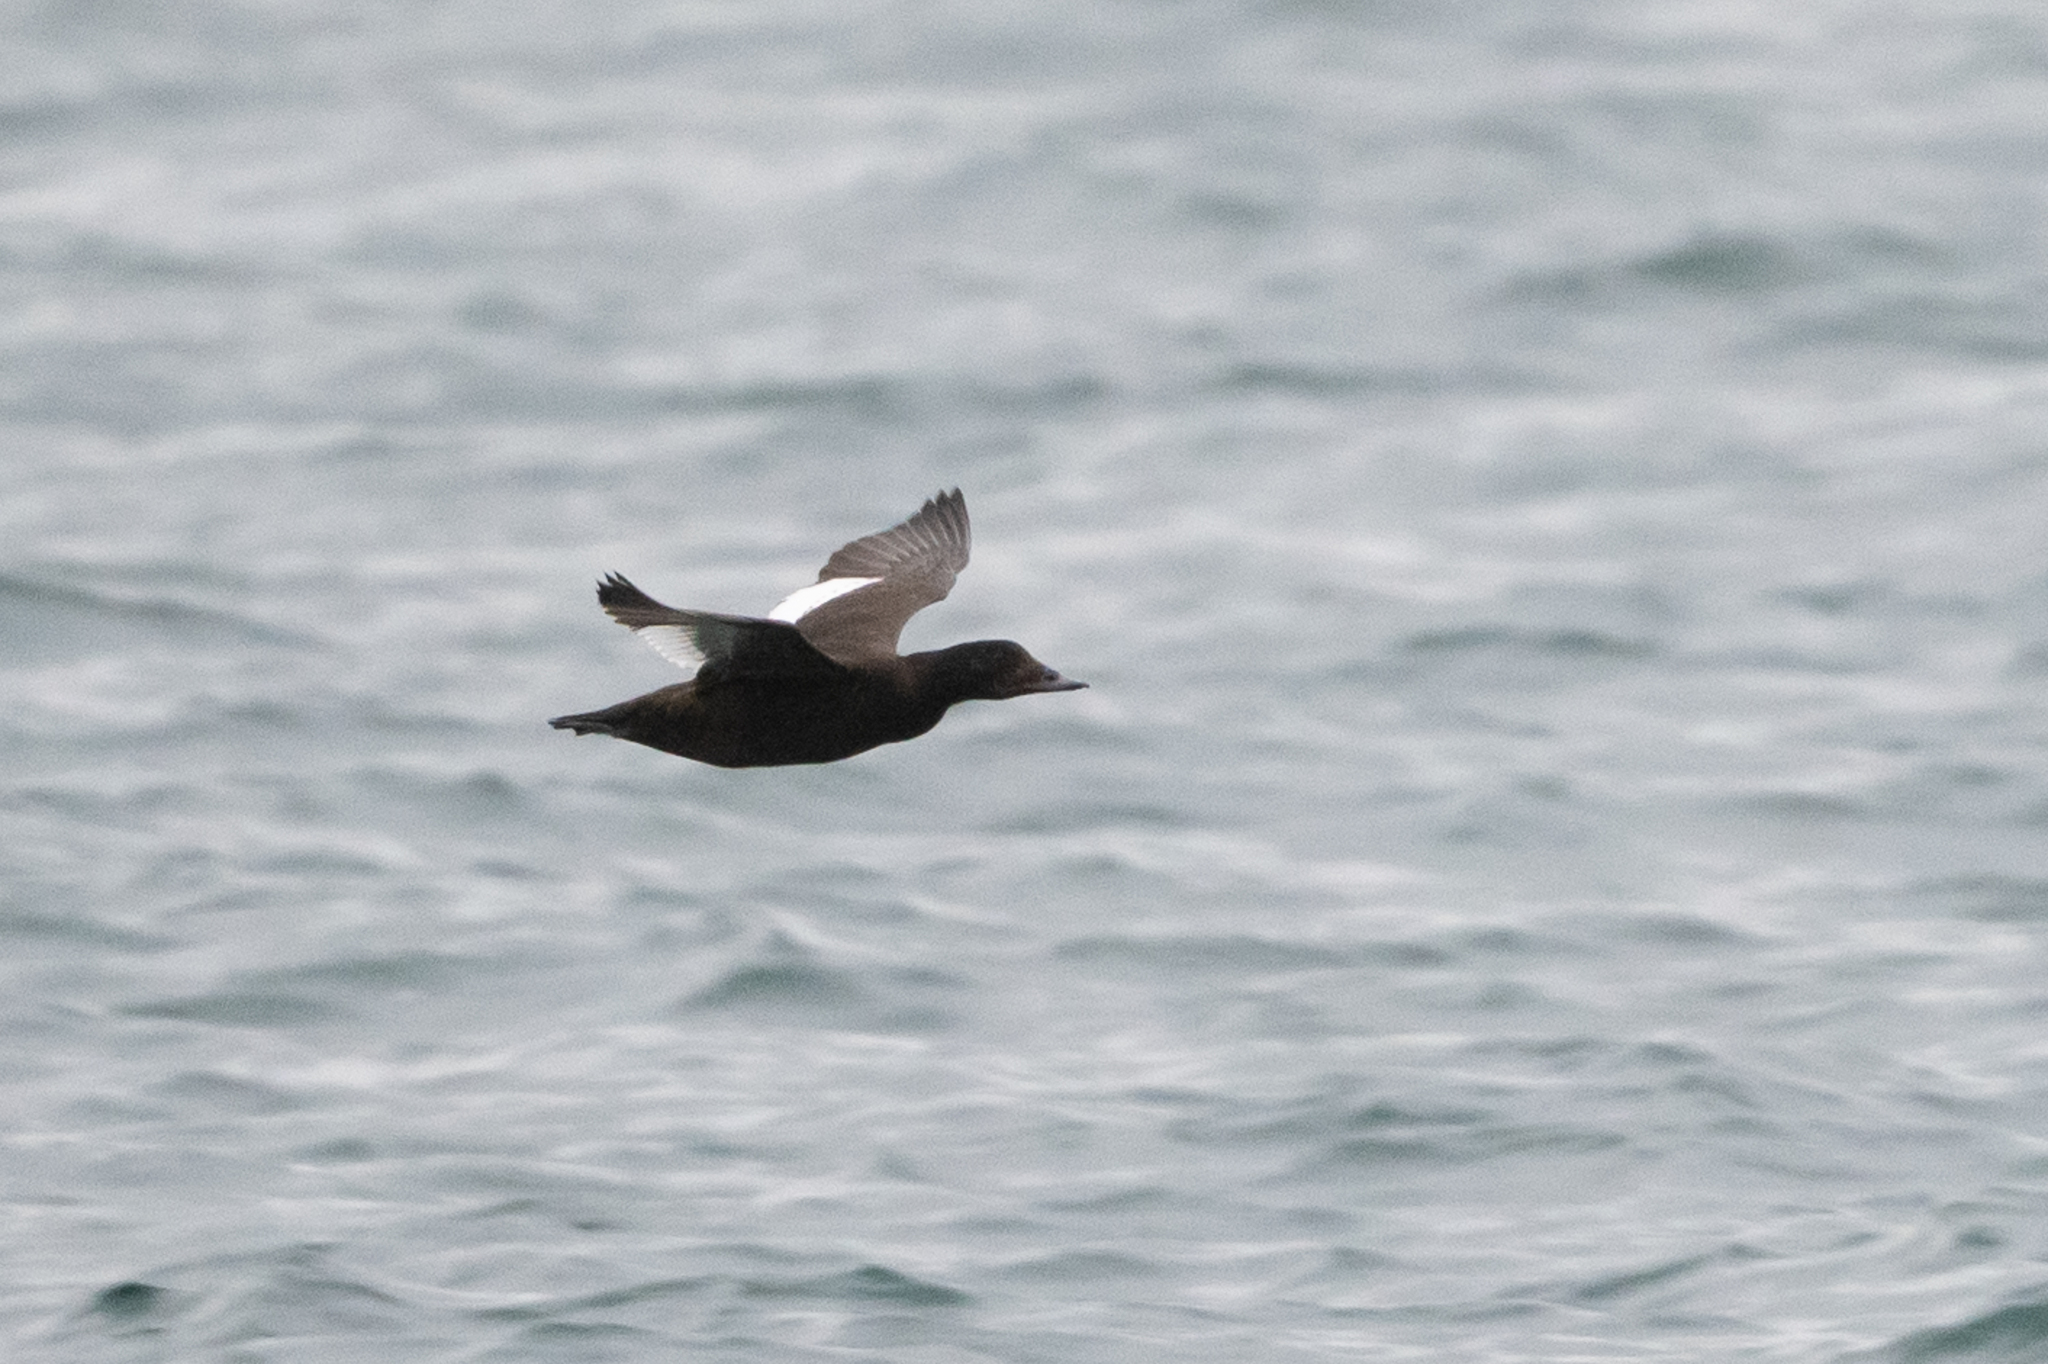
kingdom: Animalia
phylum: Chordata
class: Aves
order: Anseriformes
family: Anatidae
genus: Melanitta
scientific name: Melanitta deglandi
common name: White-winged scoter
